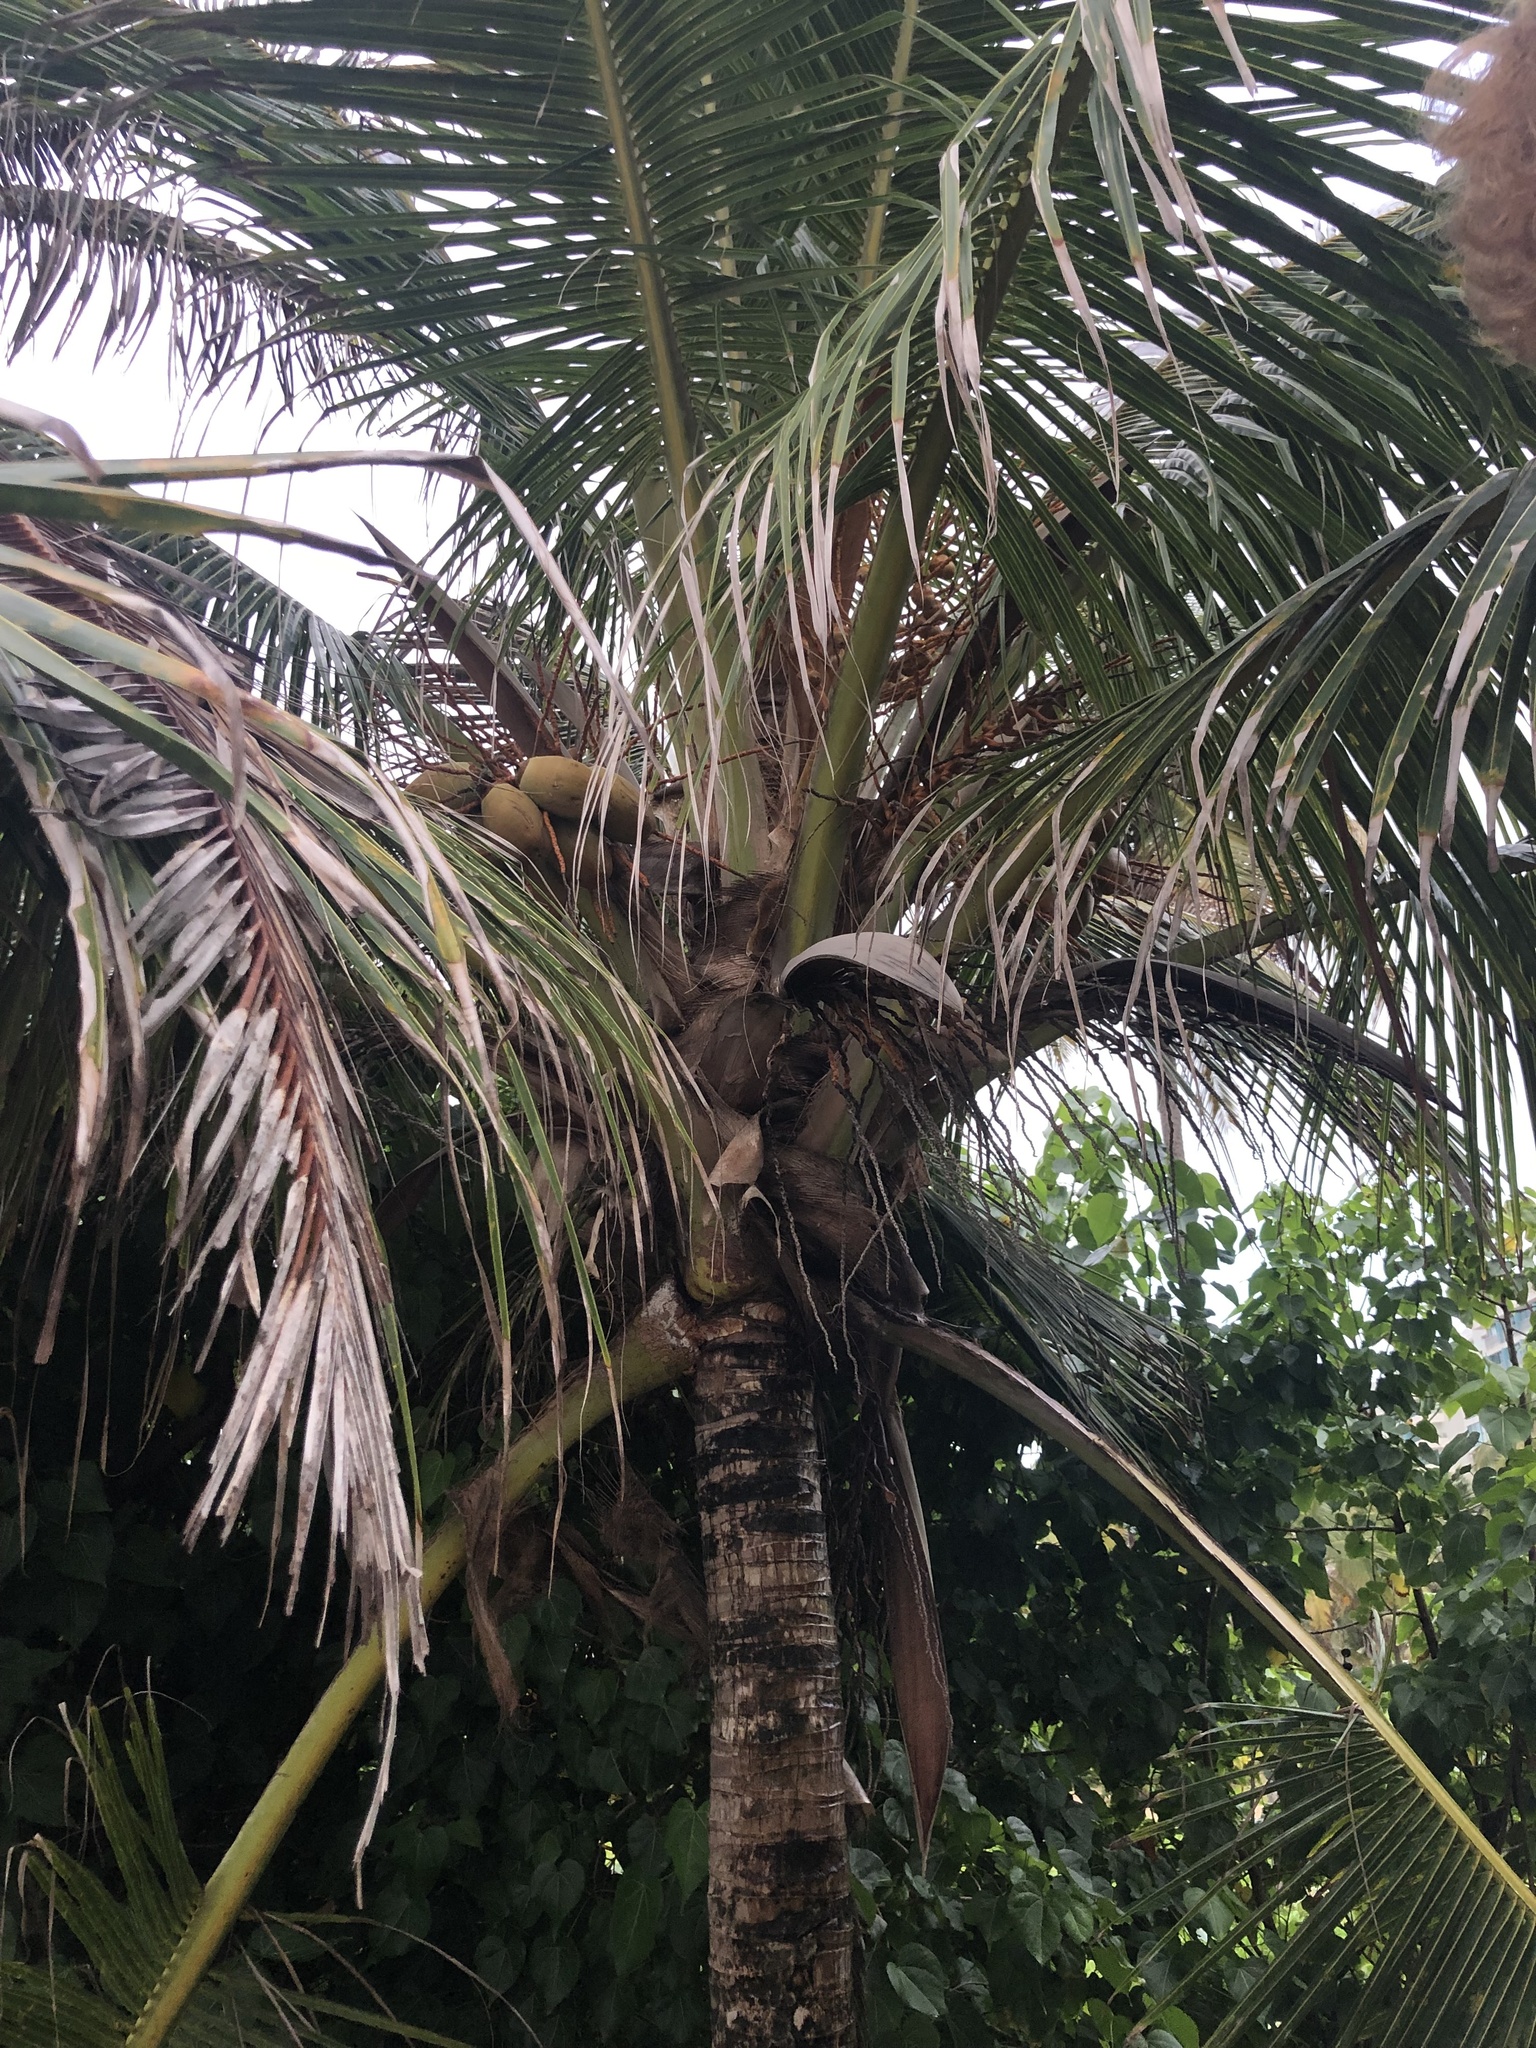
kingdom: Plantae
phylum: Tracheophyta
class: Liliopsida
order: Arecales
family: Arecaceae
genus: Cocos
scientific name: Cocos nucifera
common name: Coconut palm
